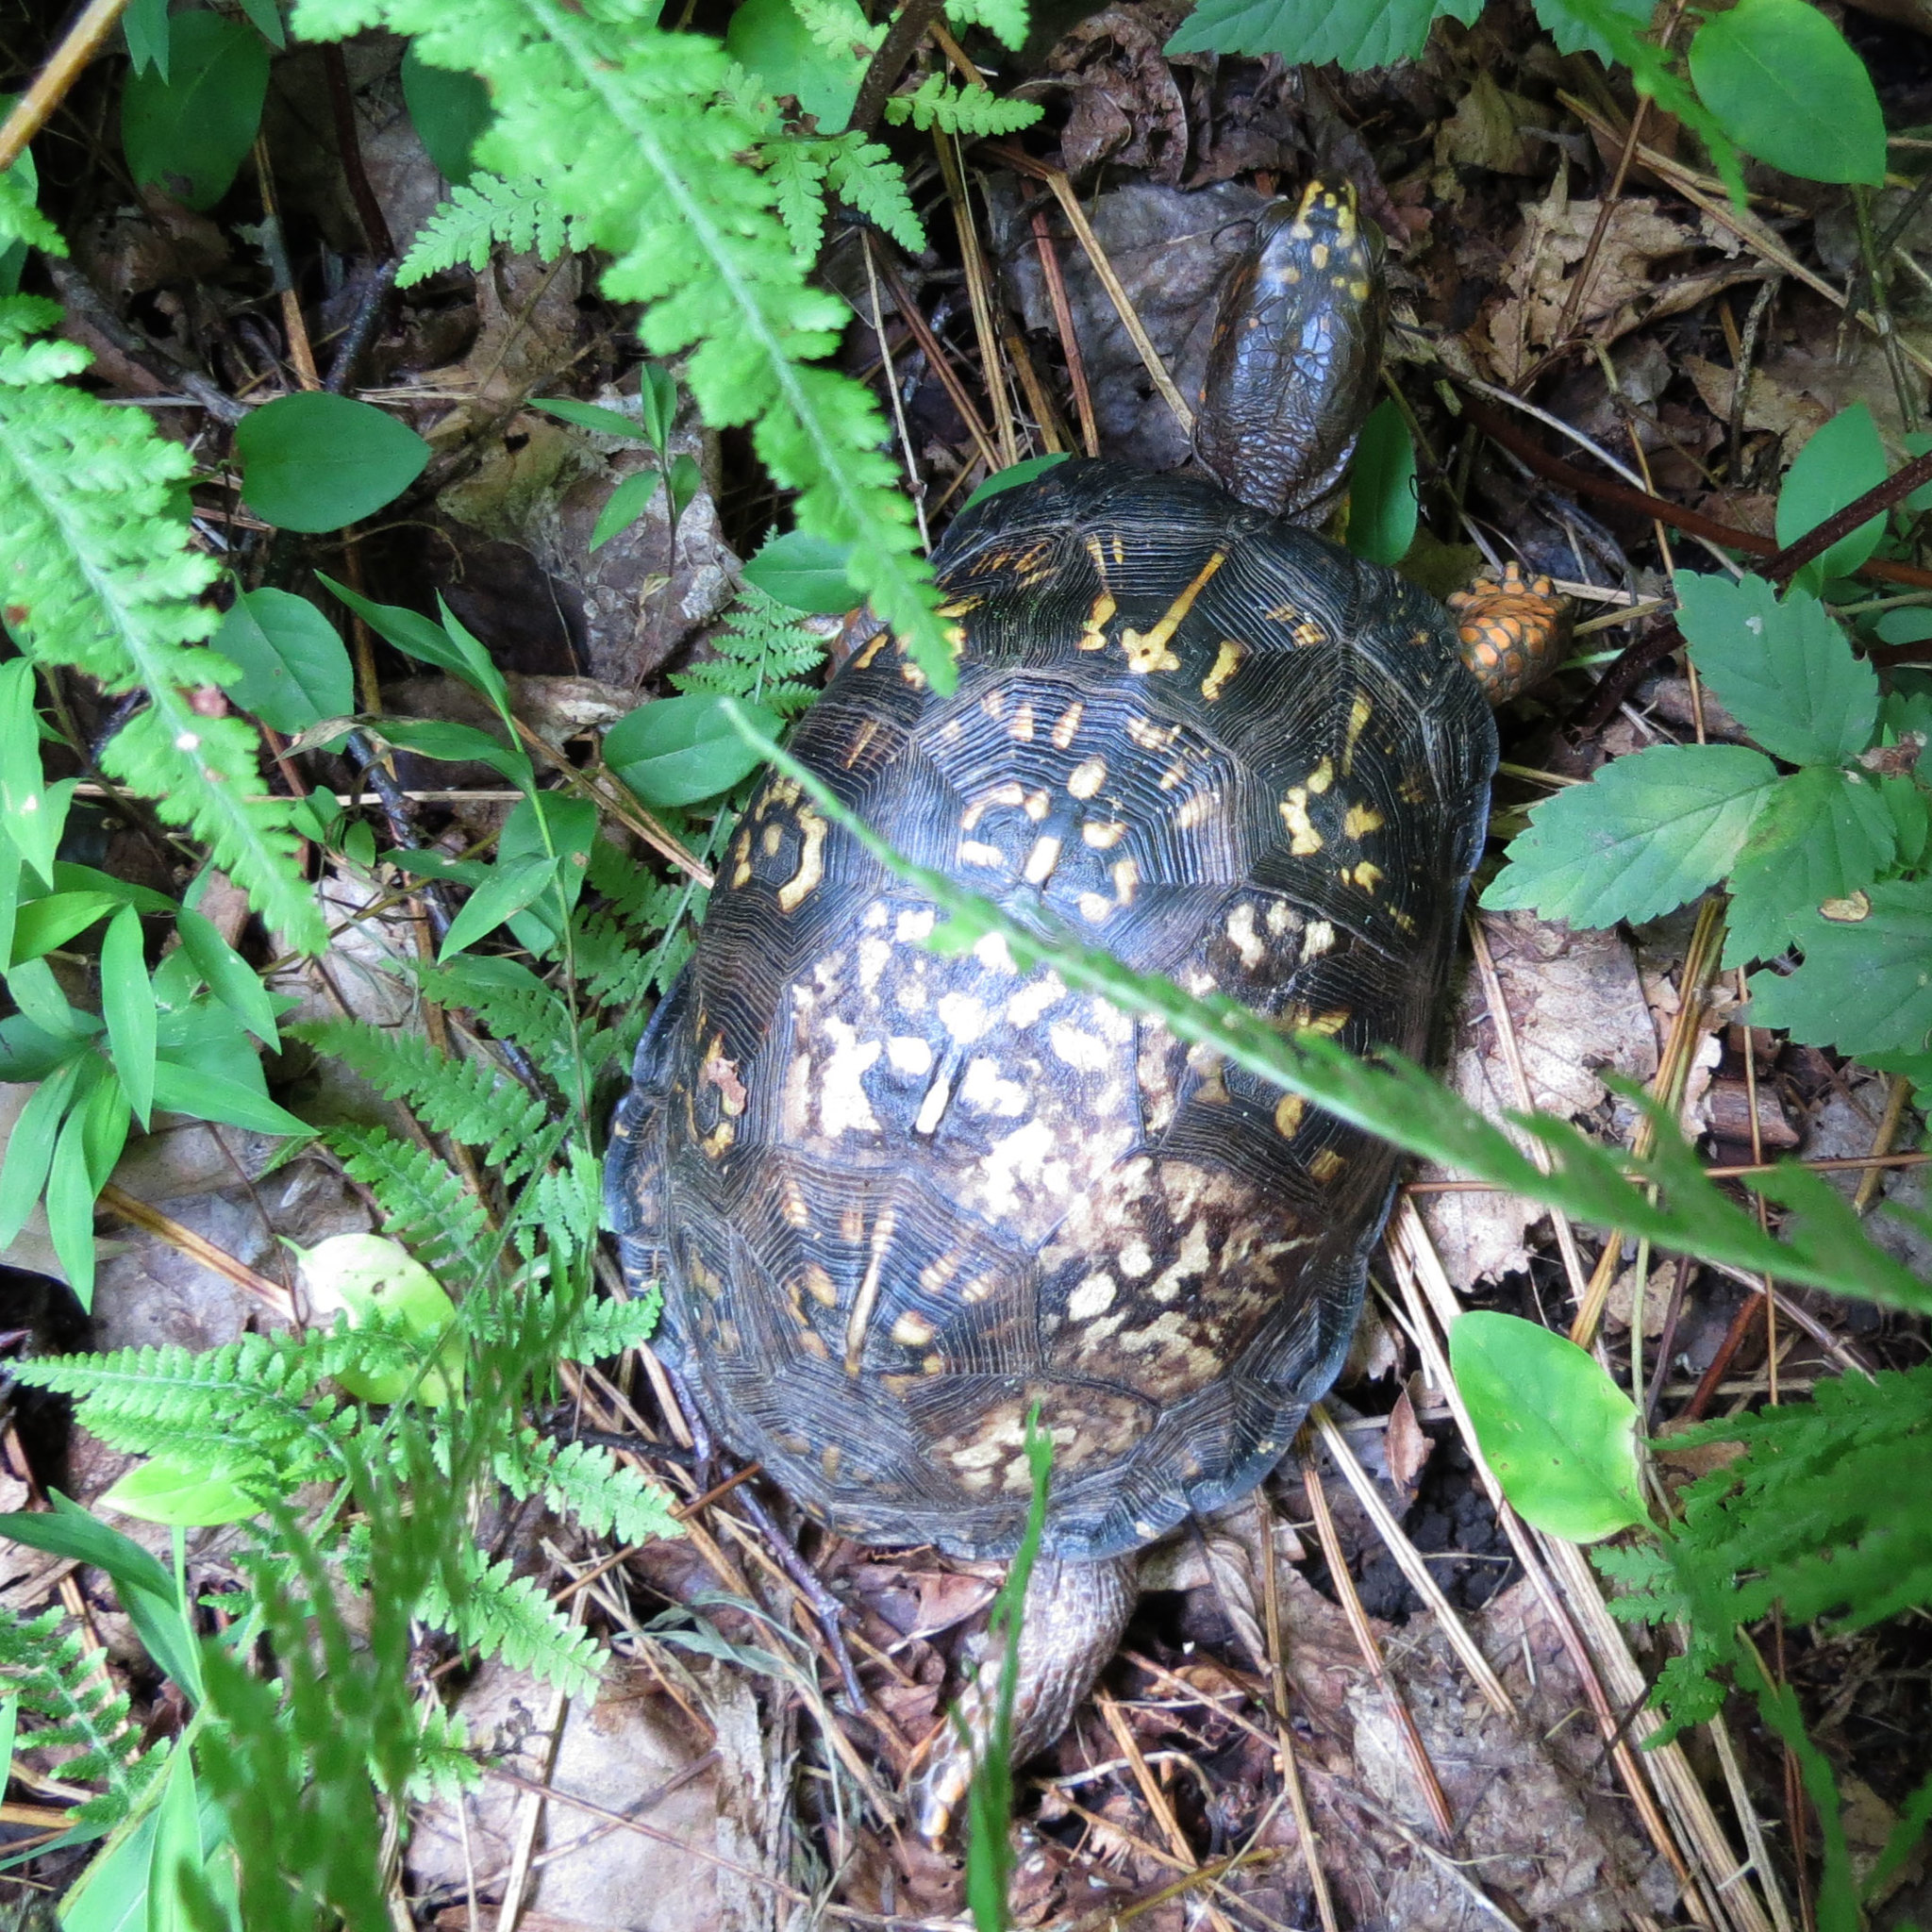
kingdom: Animalia
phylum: Chordata
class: Testudines
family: Emydidae
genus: Terrapene
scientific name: Terrapene carolina
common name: Common box turtle
